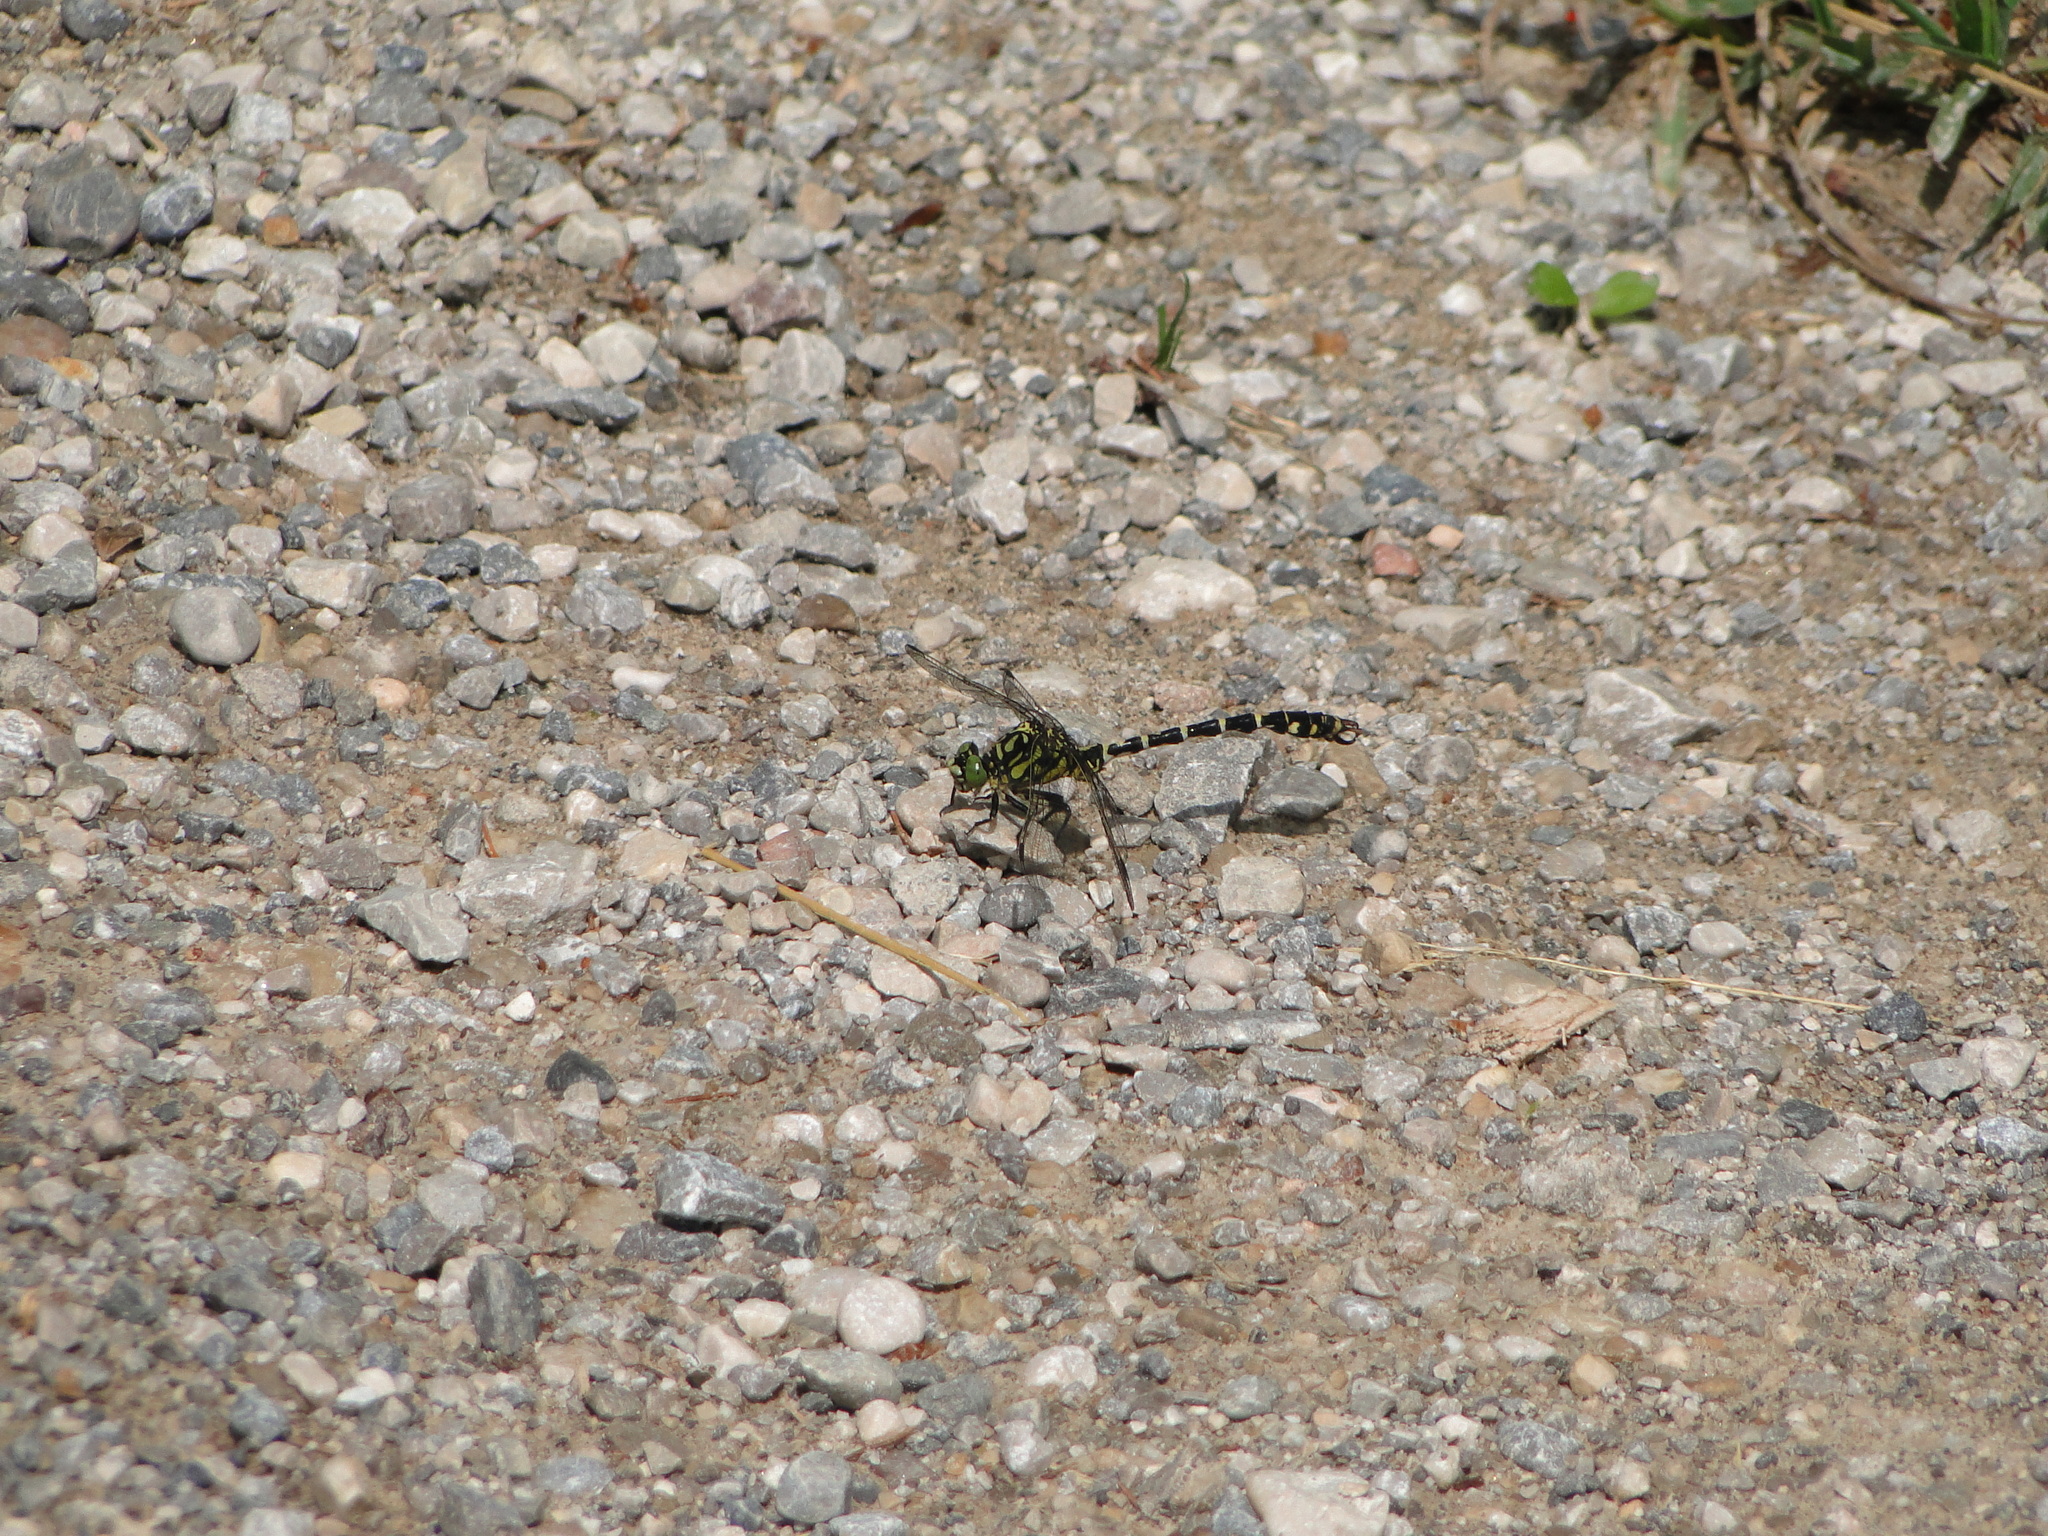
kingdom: Animalia
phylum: Arthropoda
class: Insecta
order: Odonata
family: Gomphidae
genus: Onychogomphus
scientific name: Onychogomphus forcipatus
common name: Small pincertail
